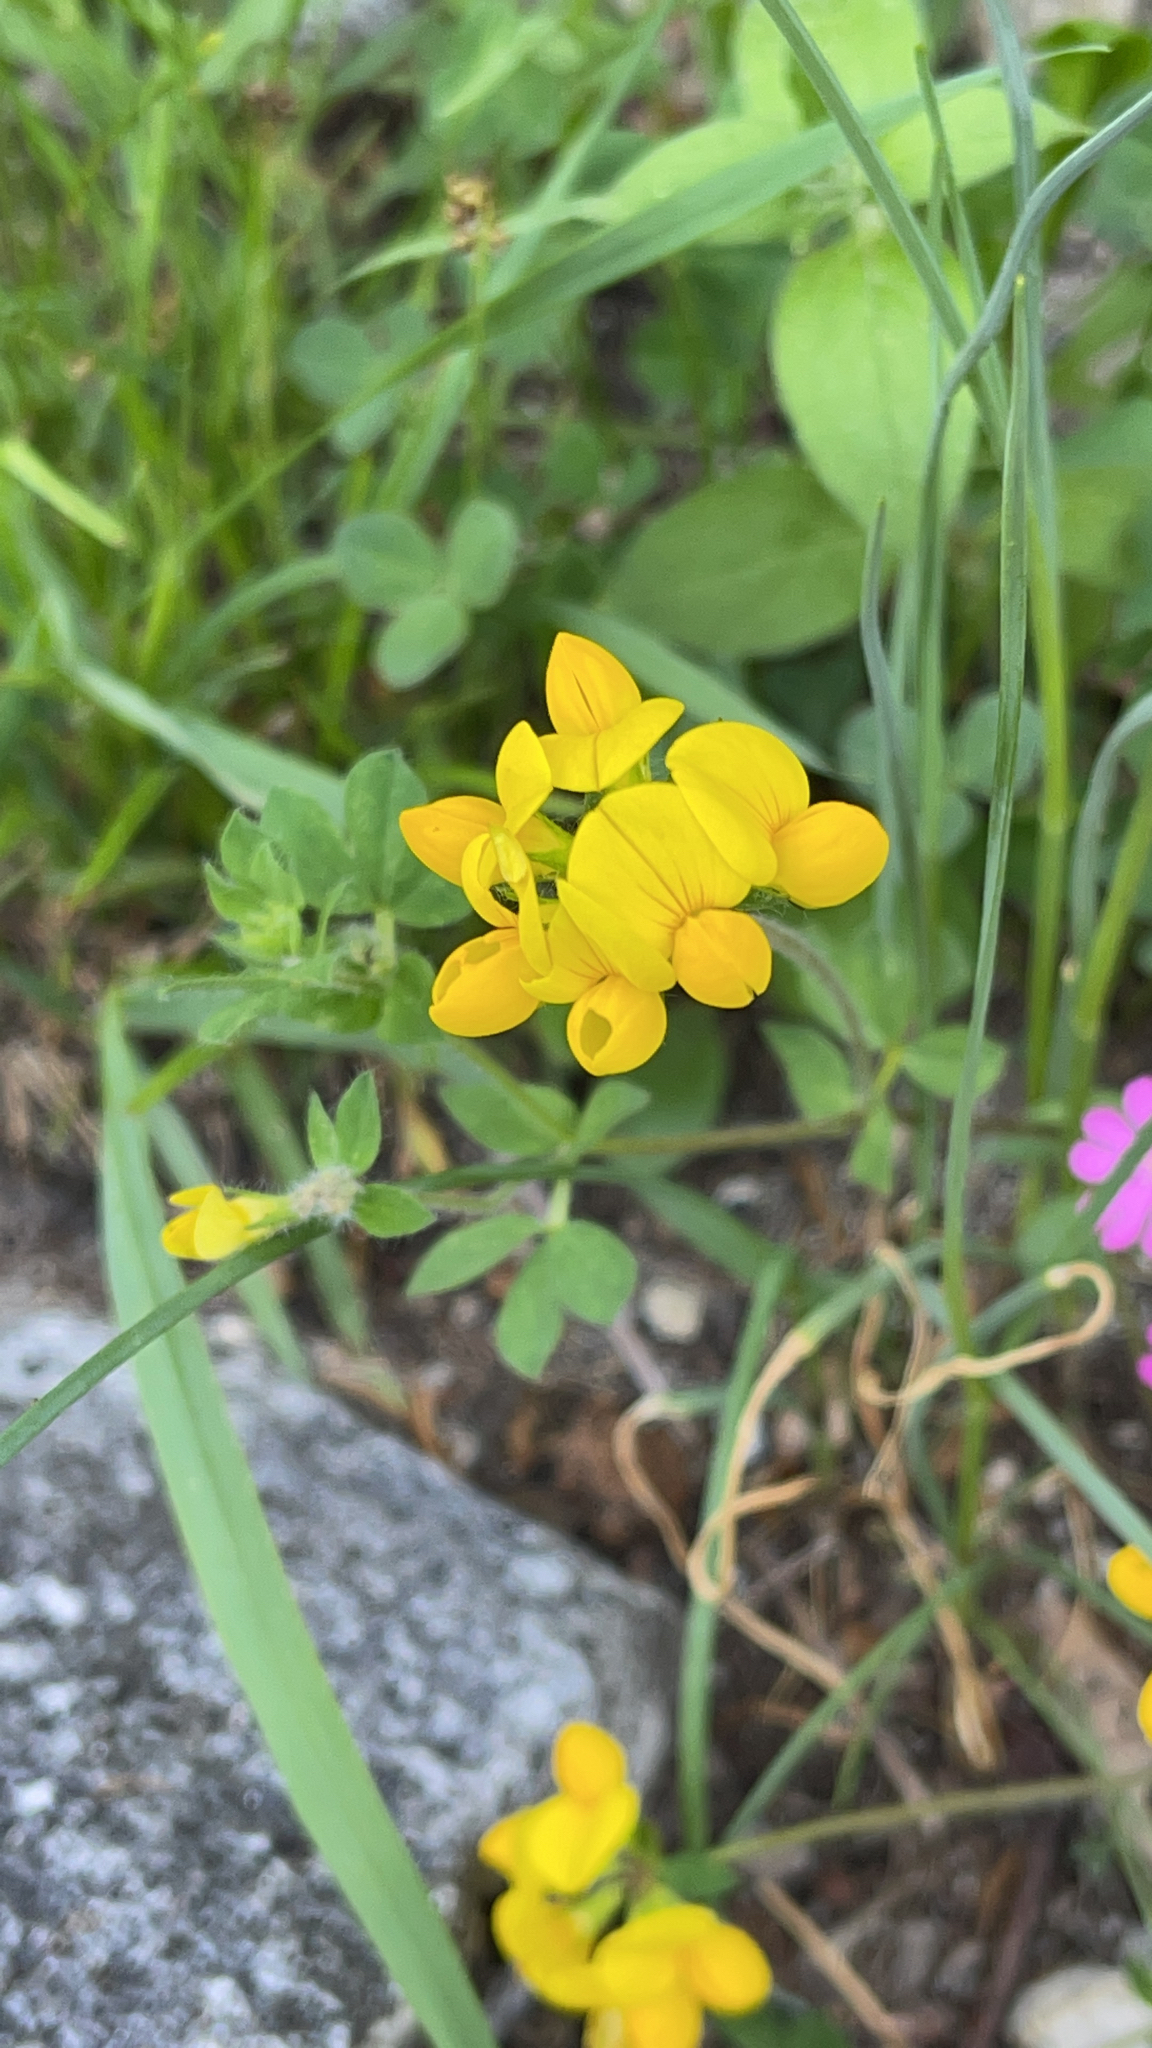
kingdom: Plantae
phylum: Tracheophyta
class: Magnoliopsida
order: Fabales
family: Fabaceae
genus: Lotus
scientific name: Lotus corniculatus
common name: Common bird's-foot-trefoil
